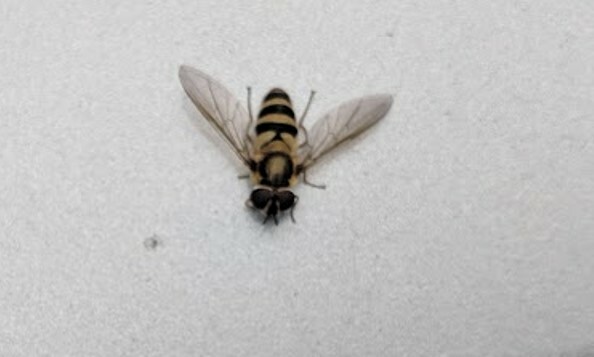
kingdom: Animalia
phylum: Arthropoda
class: Insecta
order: Diptera
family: Syrphidae
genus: Epistrophe
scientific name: Epistrophe grossulariae
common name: Black-horned smoothtail
